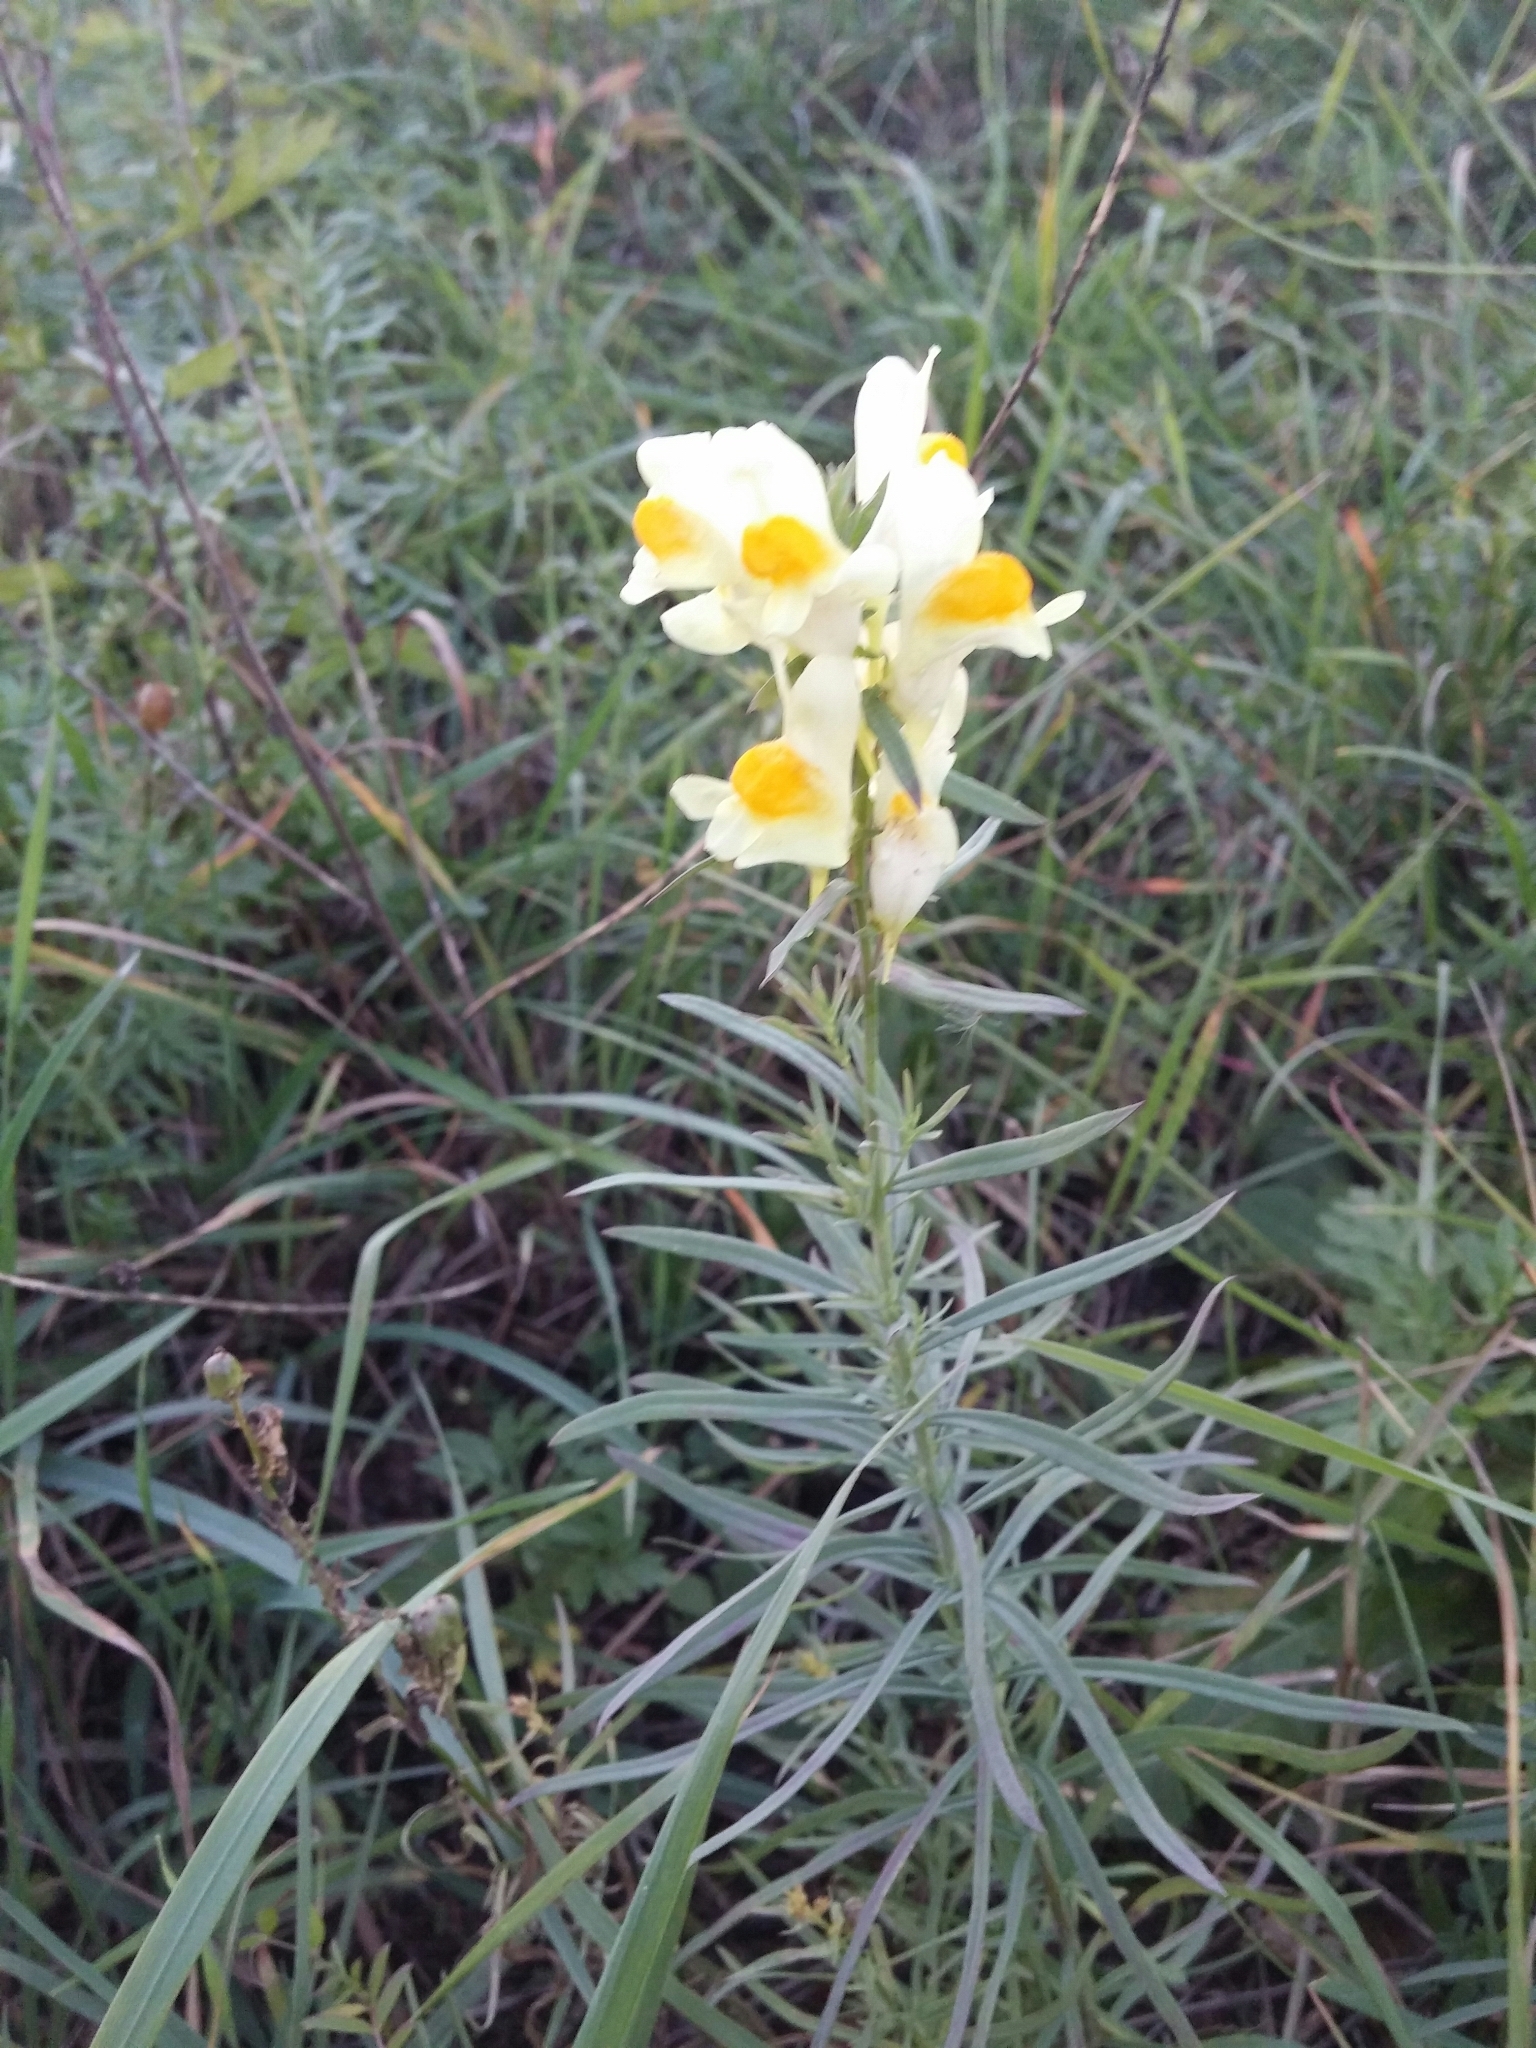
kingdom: Plantae
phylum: Tracheophyta
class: Magnoliopsida
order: Lamiales
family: Plantaginaceae
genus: Linaria
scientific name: Linaria vulgaris
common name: Butter and eggs
